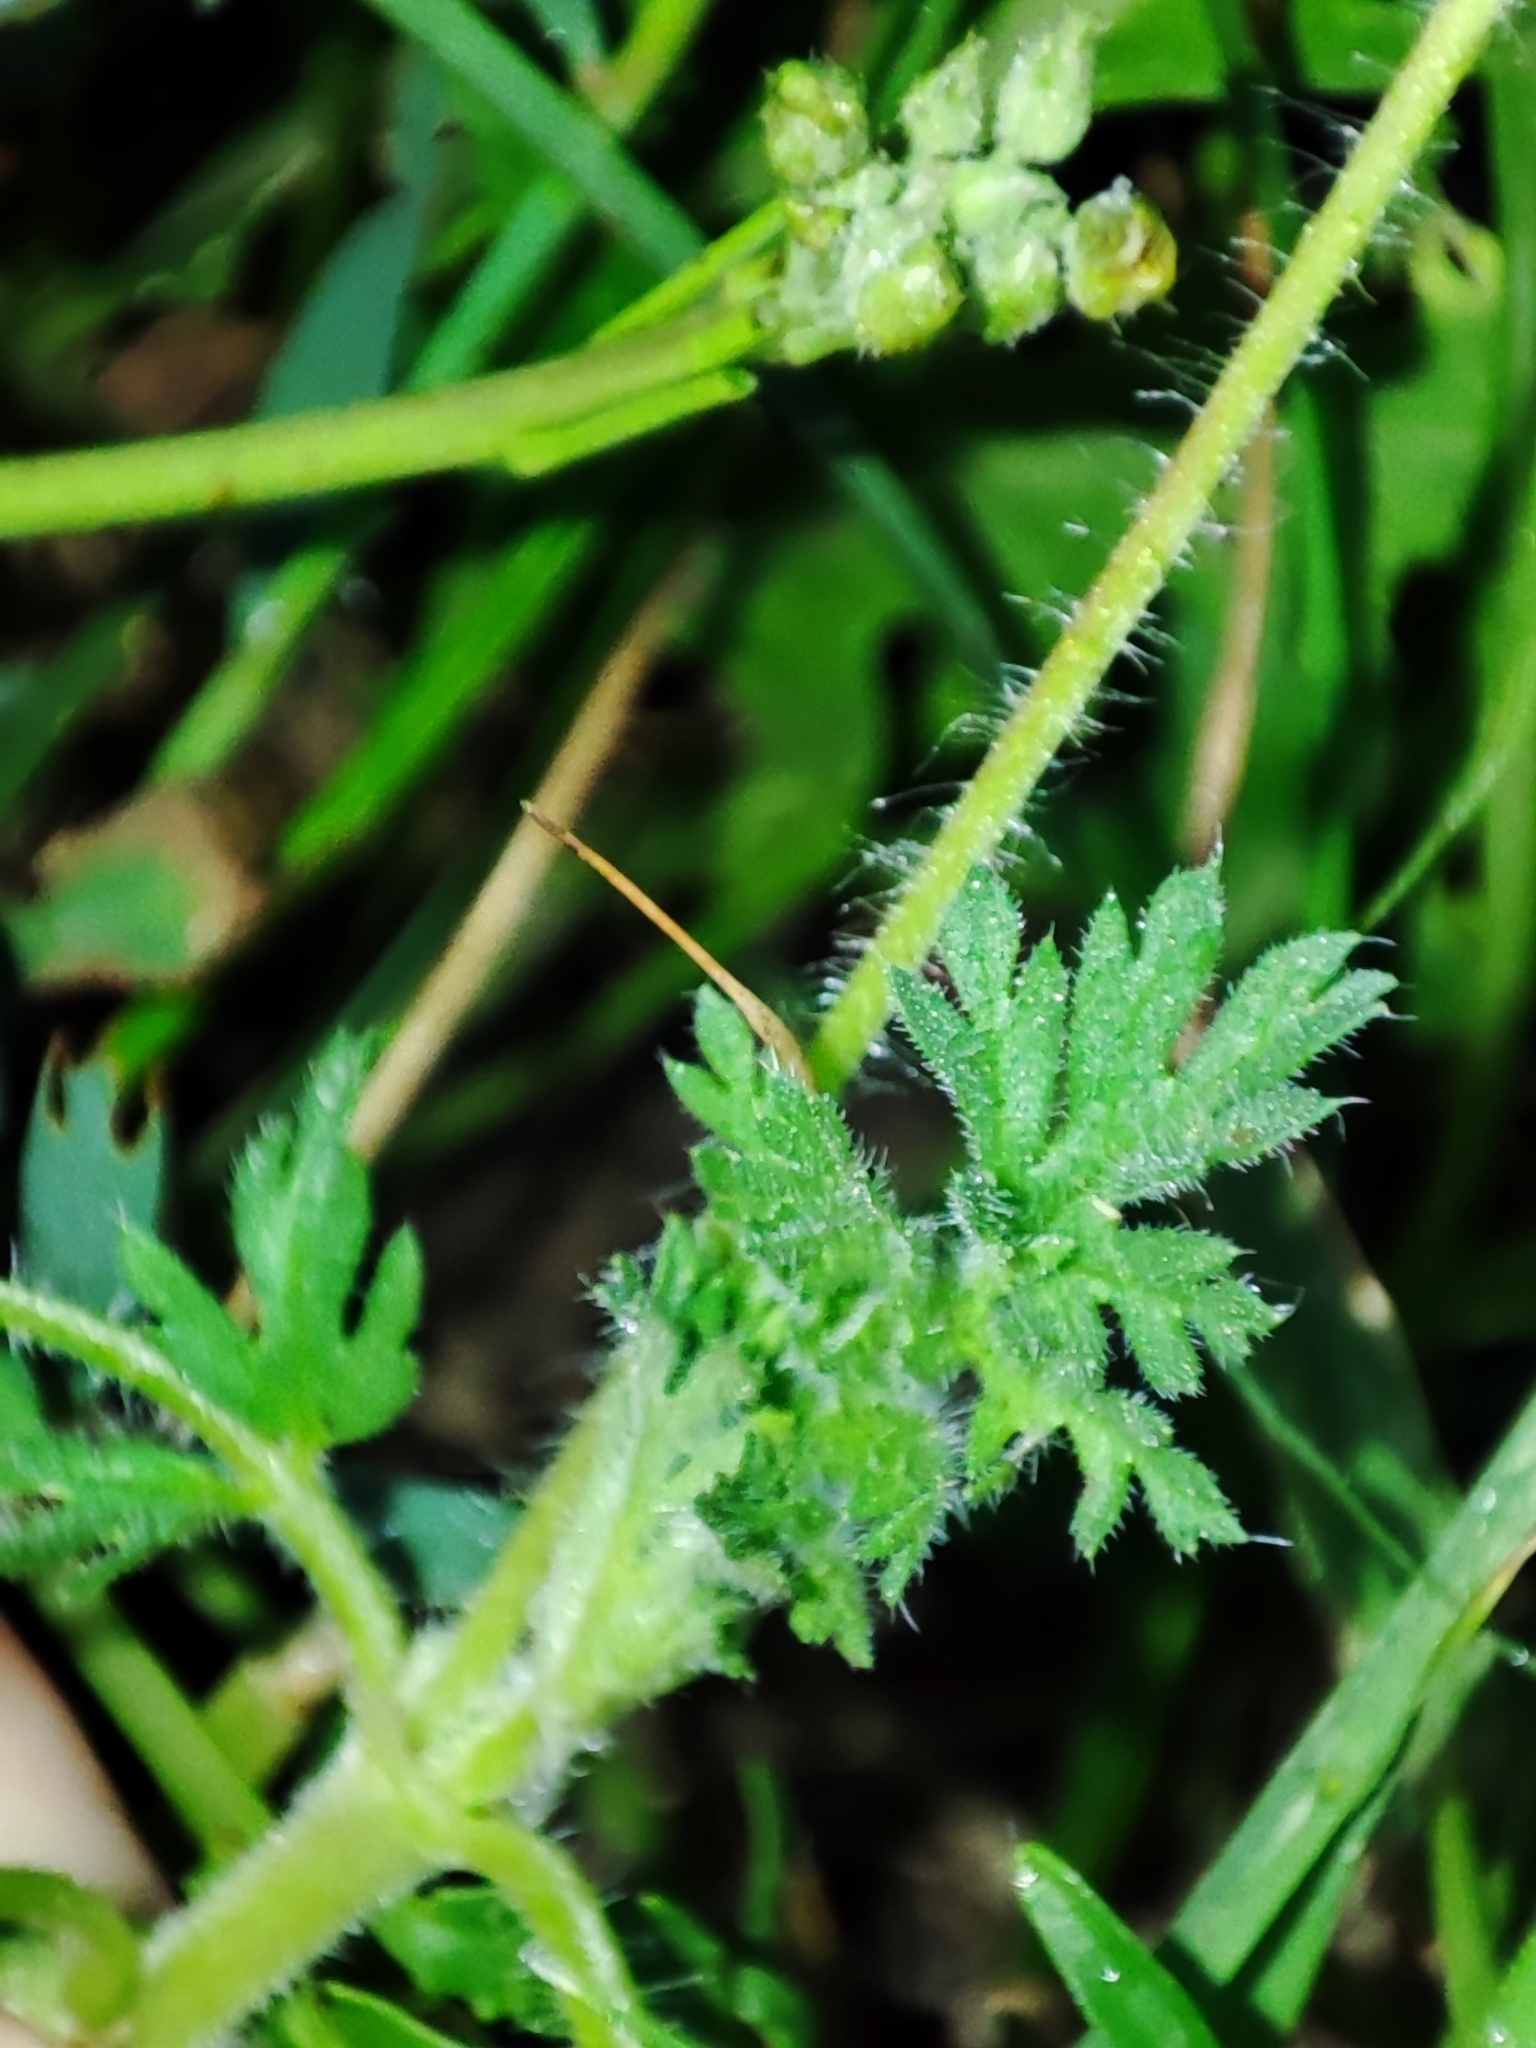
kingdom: Plantae
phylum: Tracheophyta
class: Magnoliopsida
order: Geraniales
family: Geraniaceae
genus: Erodium
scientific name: Erodium cicutarium
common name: Common stork's-bill
